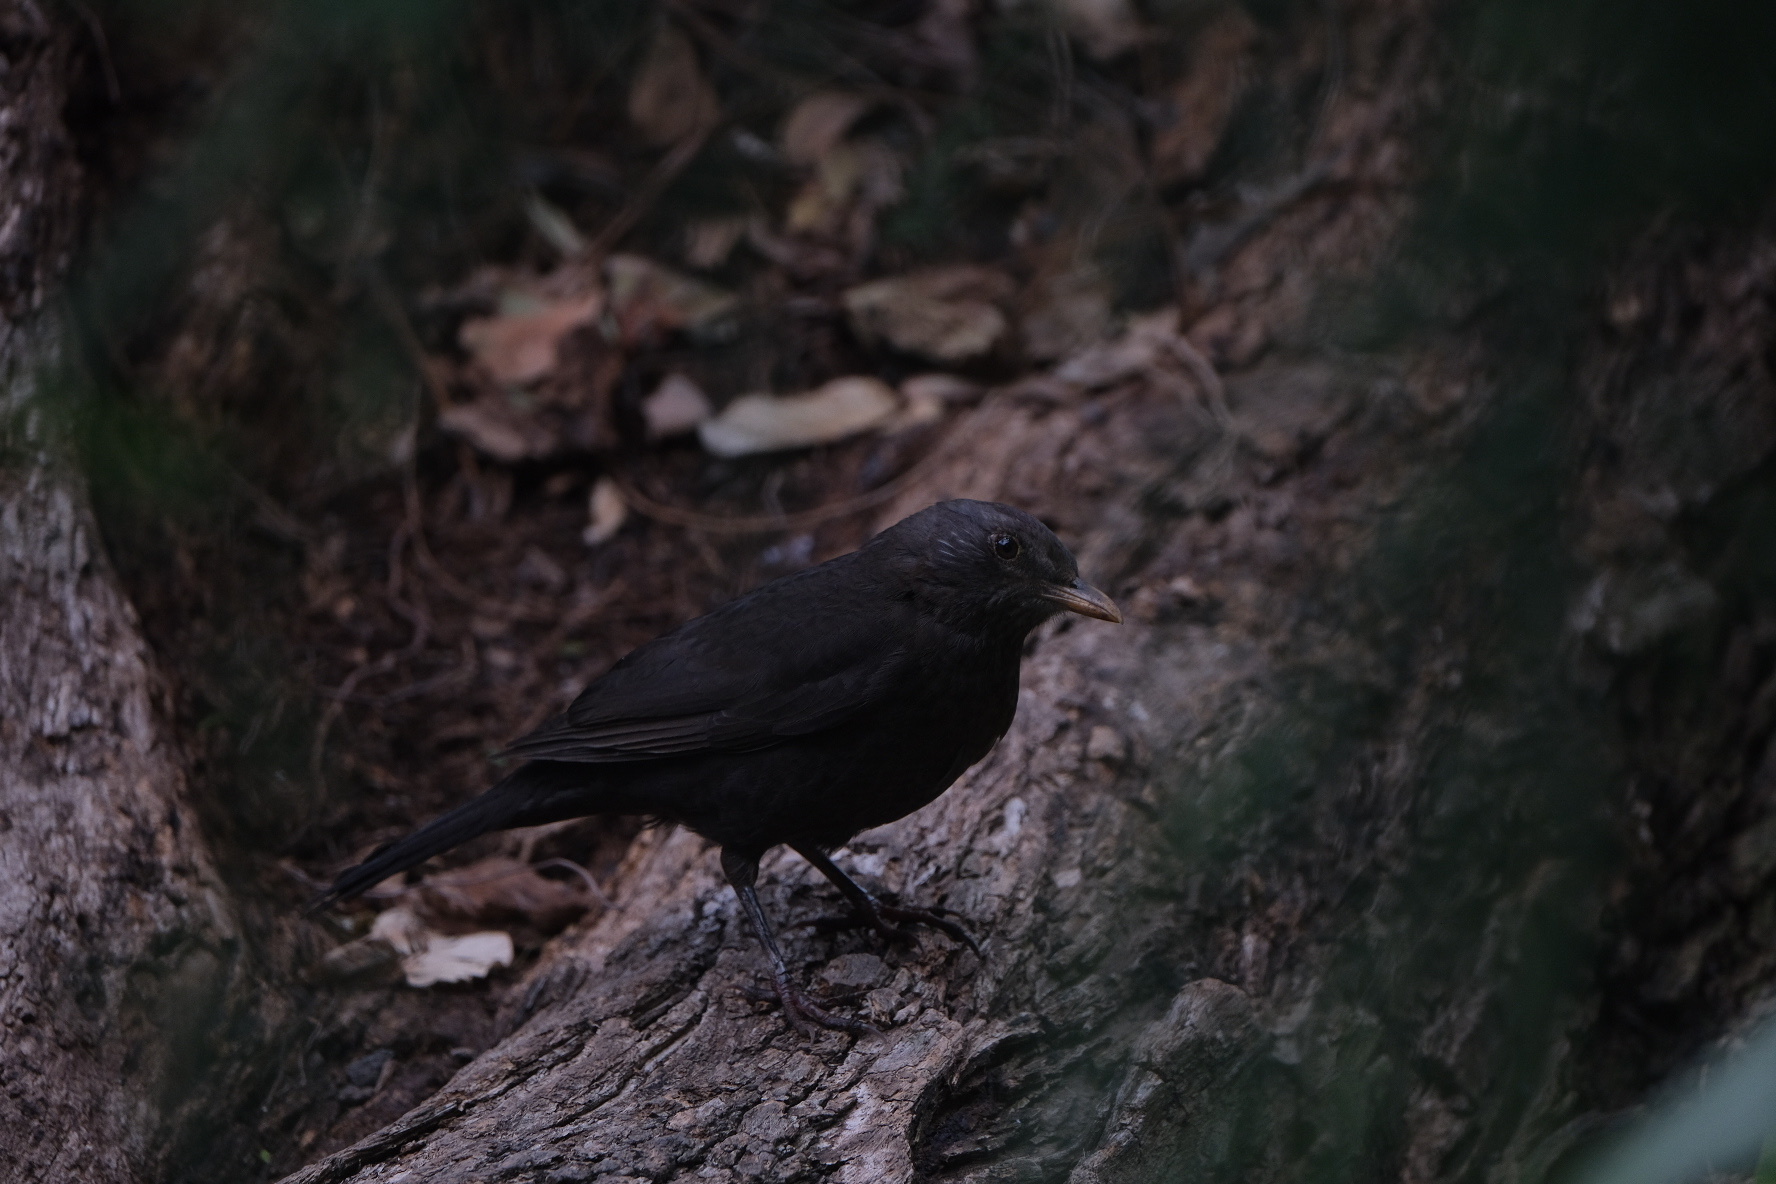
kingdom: Animalia
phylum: Chordata
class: Aves
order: Passeriformes
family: Turdidae
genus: Turdus
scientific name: Turdus merula
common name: Common blackbird
